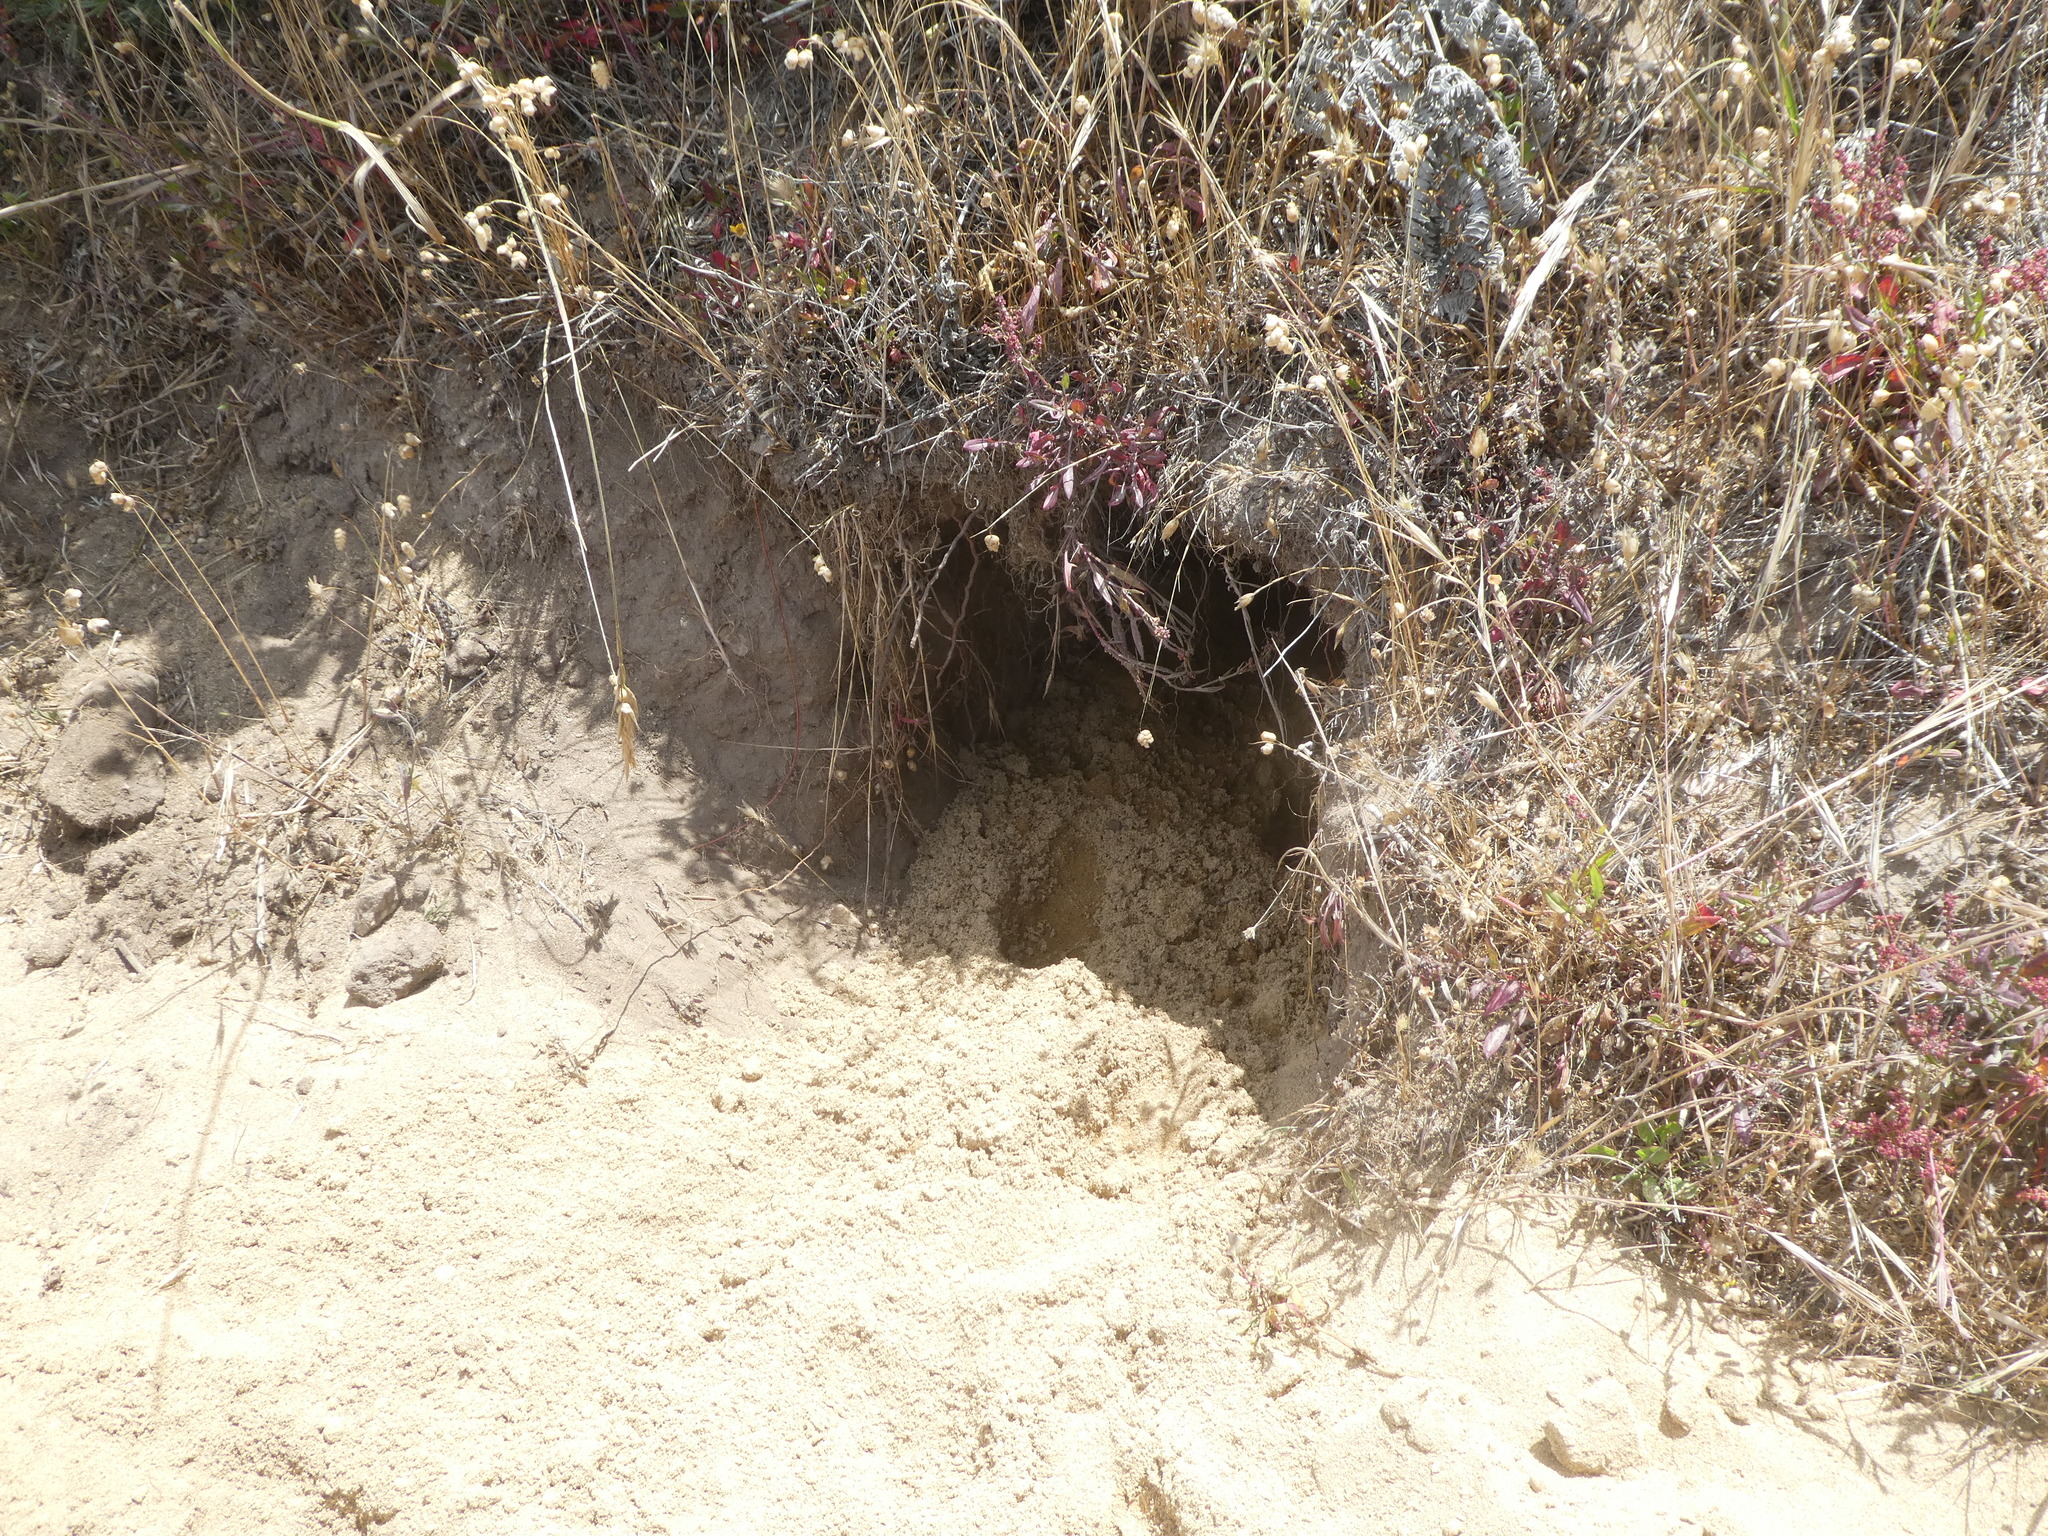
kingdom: Animalia
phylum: Chordata
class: Mammalia
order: Carnivora
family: Mustelidae
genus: Taxidea
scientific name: Taxidea taxus
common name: American badger
